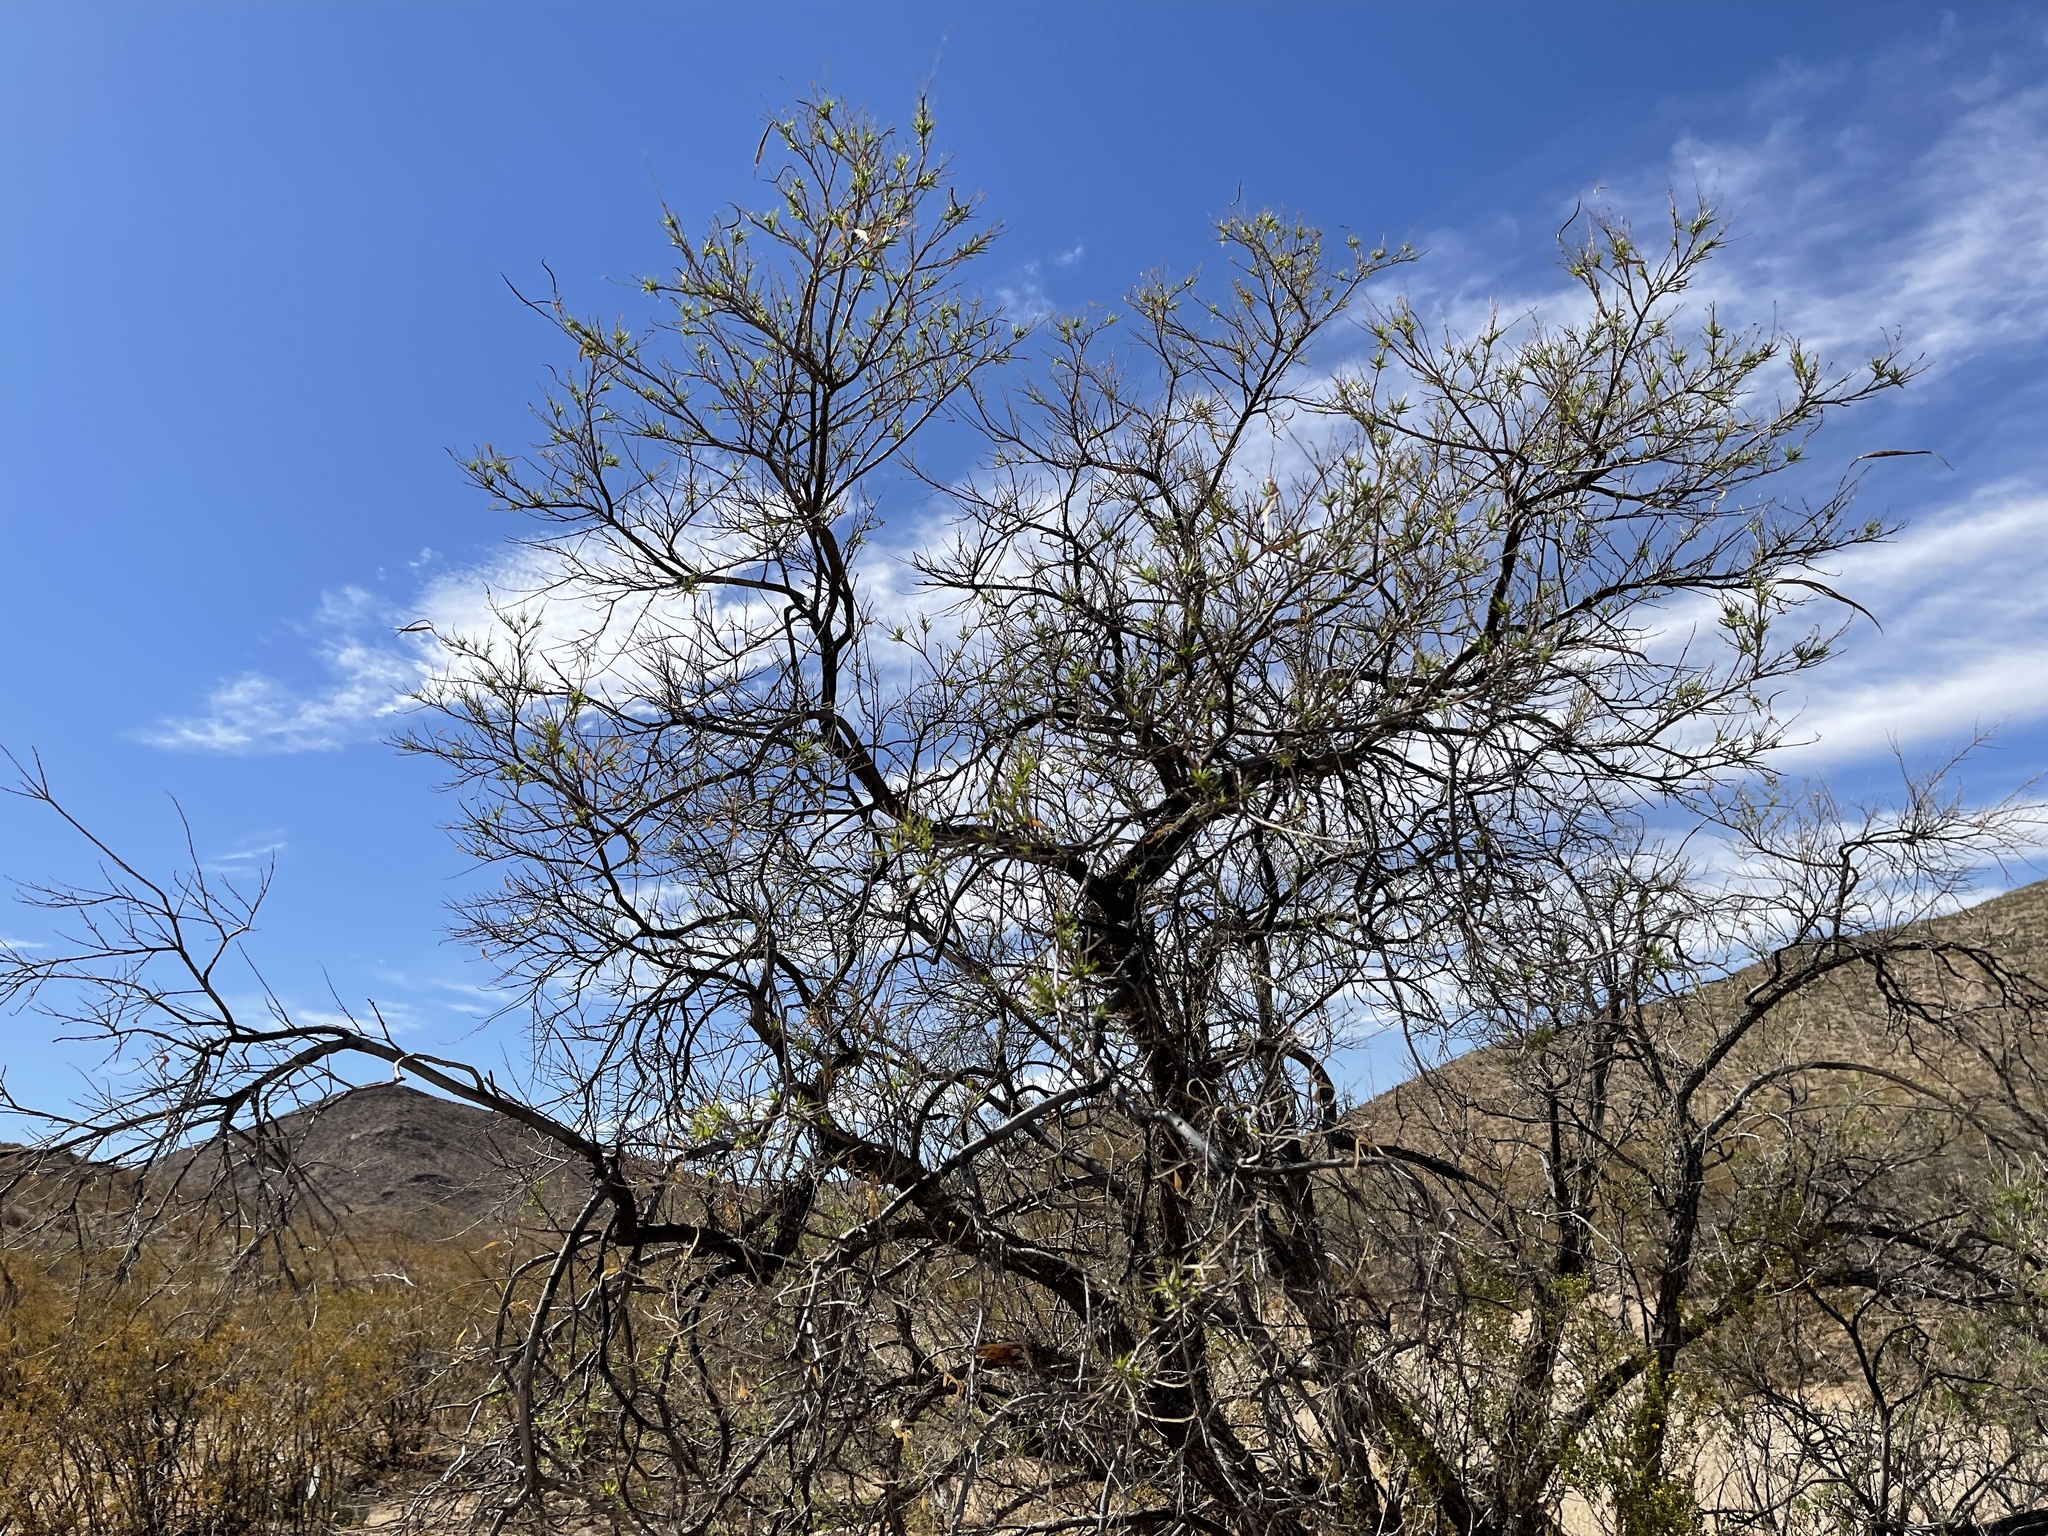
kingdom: Plantae
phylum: Tracheophyta
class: Magnoliopsida
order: Lamiales
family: Bignoniaceae
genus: Chilopsis
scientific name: Chilopsis linearis
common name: Desert-willow
